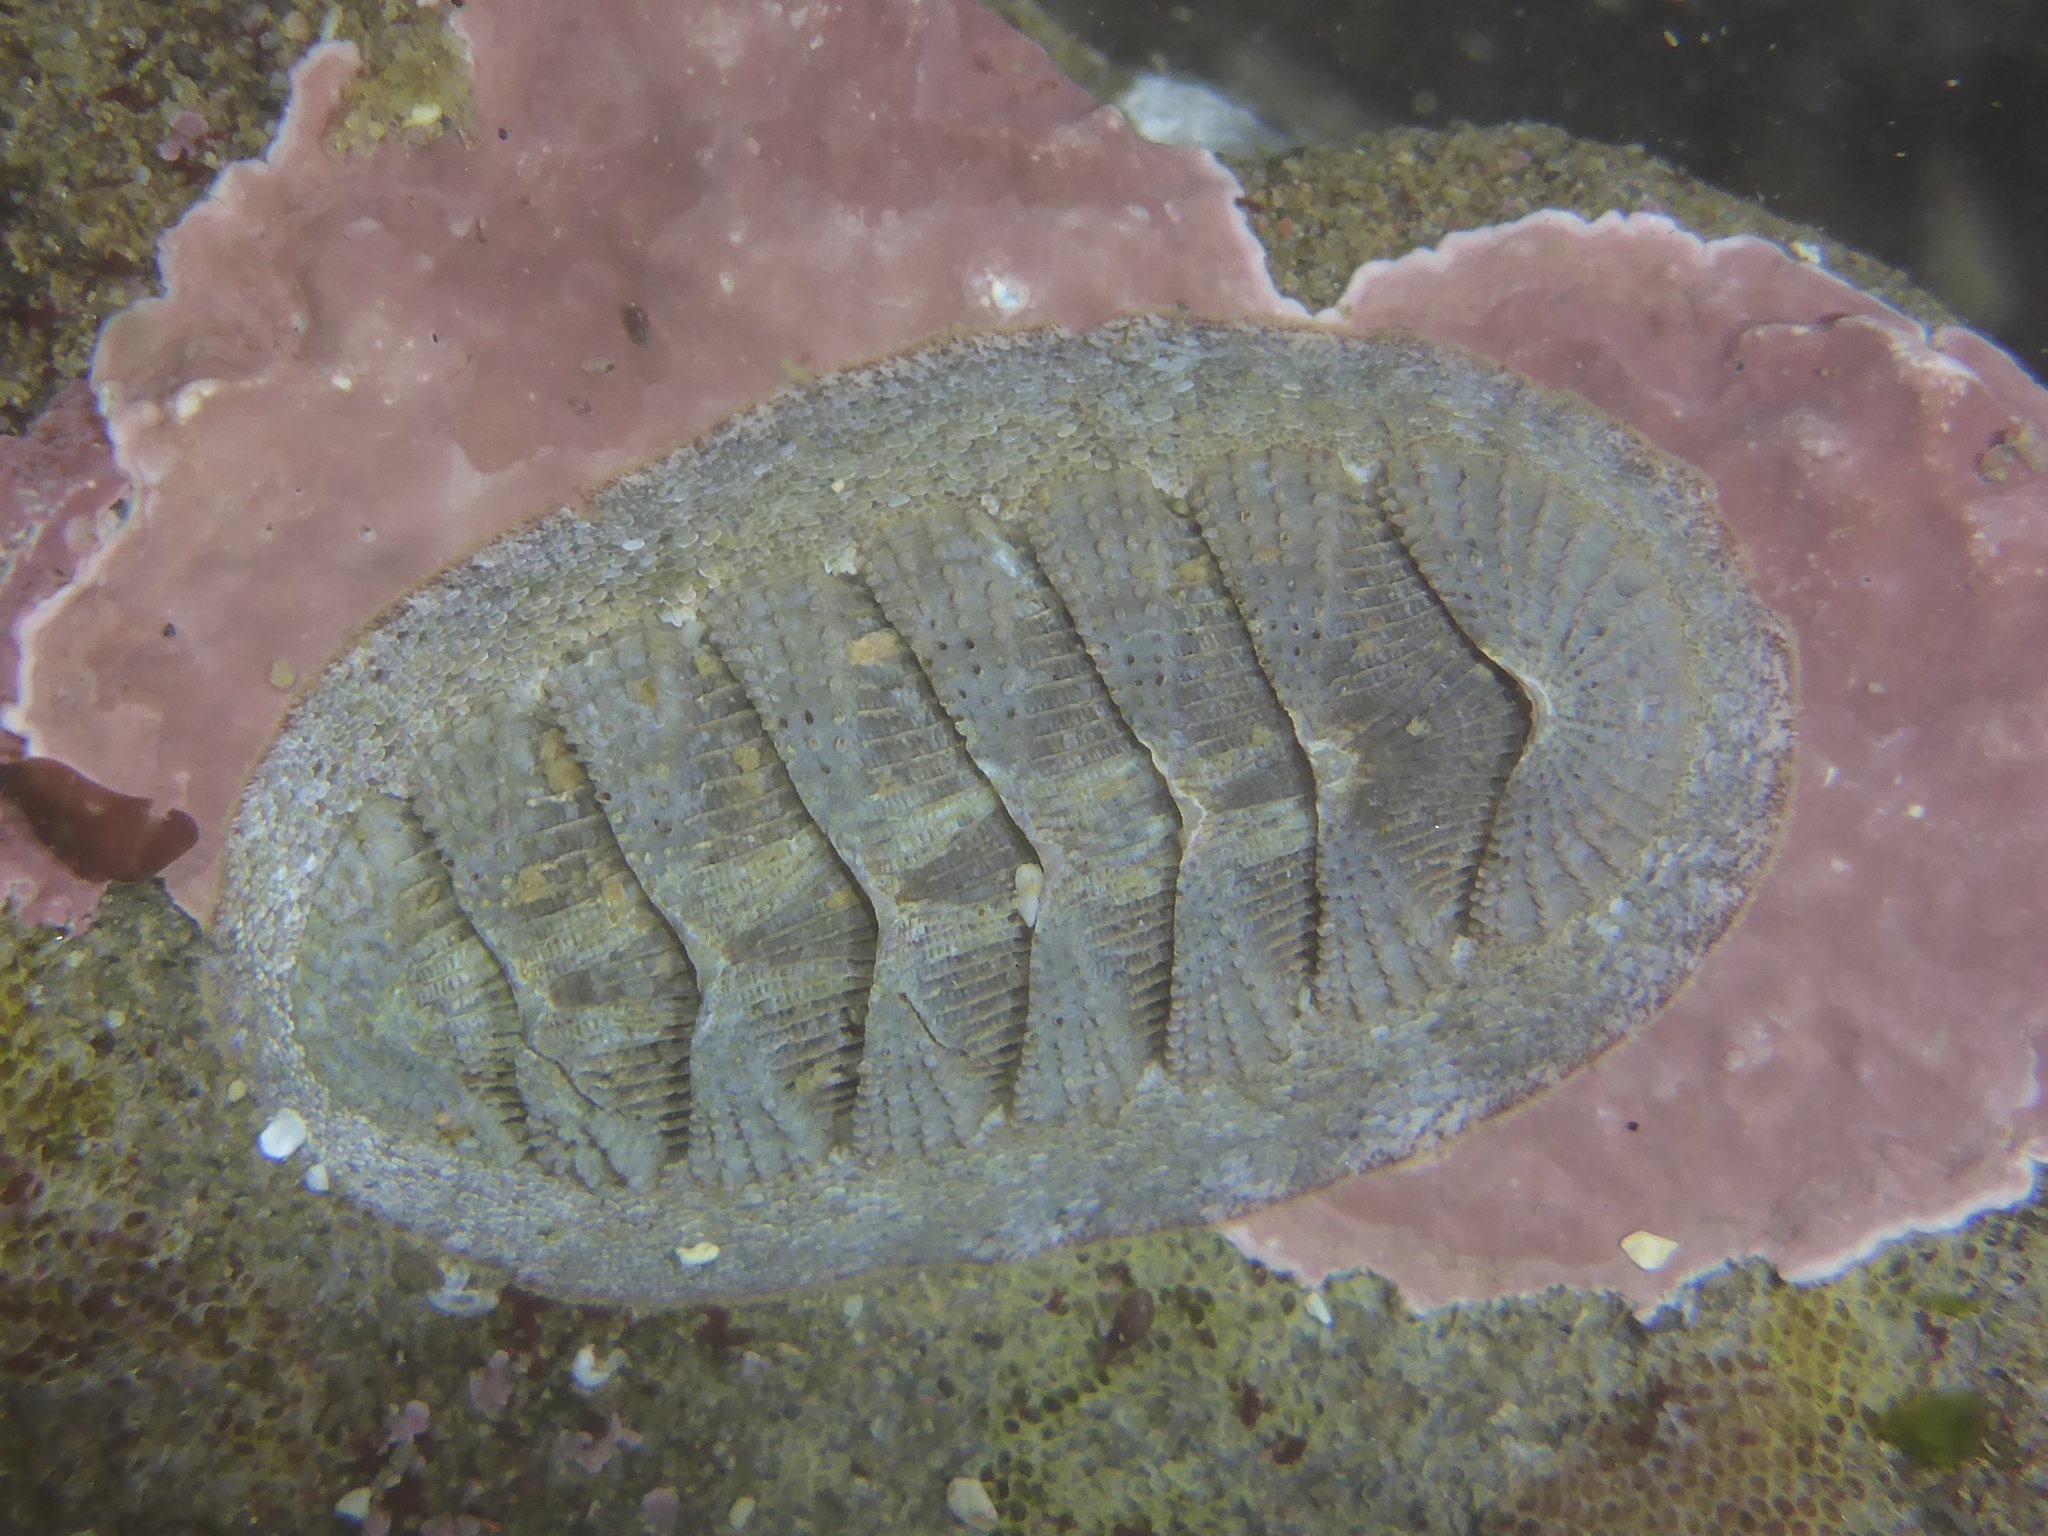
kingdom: Animalia
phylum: Mollusca
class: Polyplacophora
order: Chitonida
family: Ischnochitonidae
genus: Lepidozona
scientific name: Lepidozona cooperi
